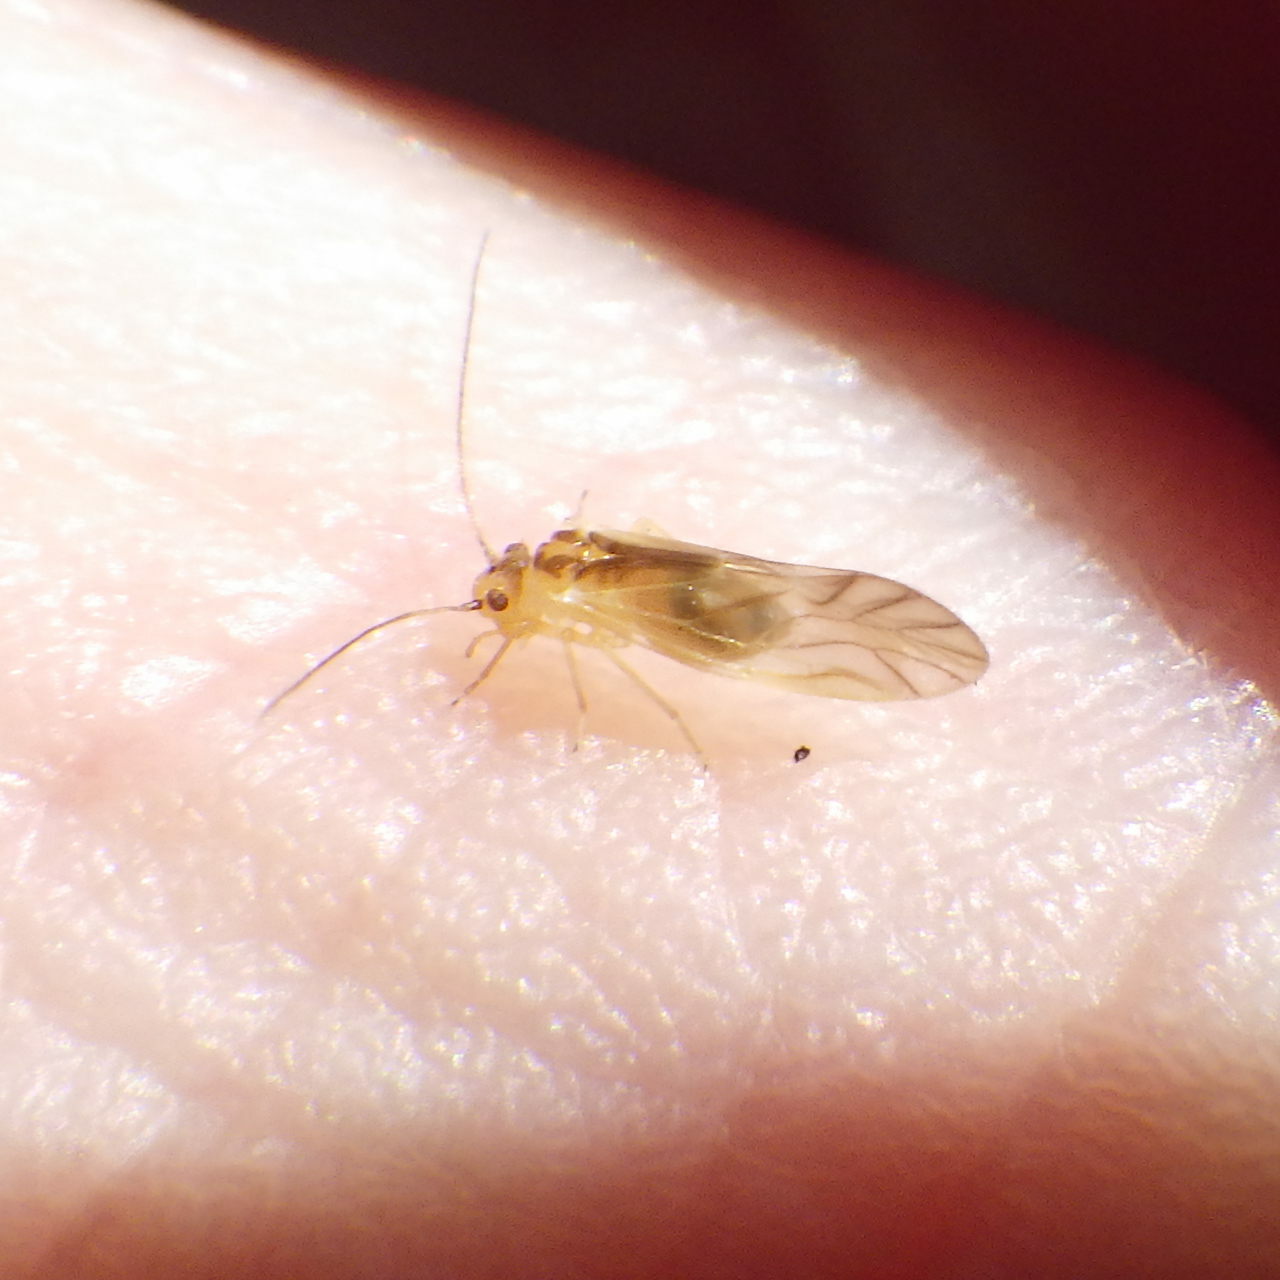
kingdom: Animalia
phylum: Arthropoda
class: Insecta
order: Psocodea
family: Caeciliusidae
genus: Valenzuela
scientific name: Valenzuela flavidus
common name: Yellow barklouse
